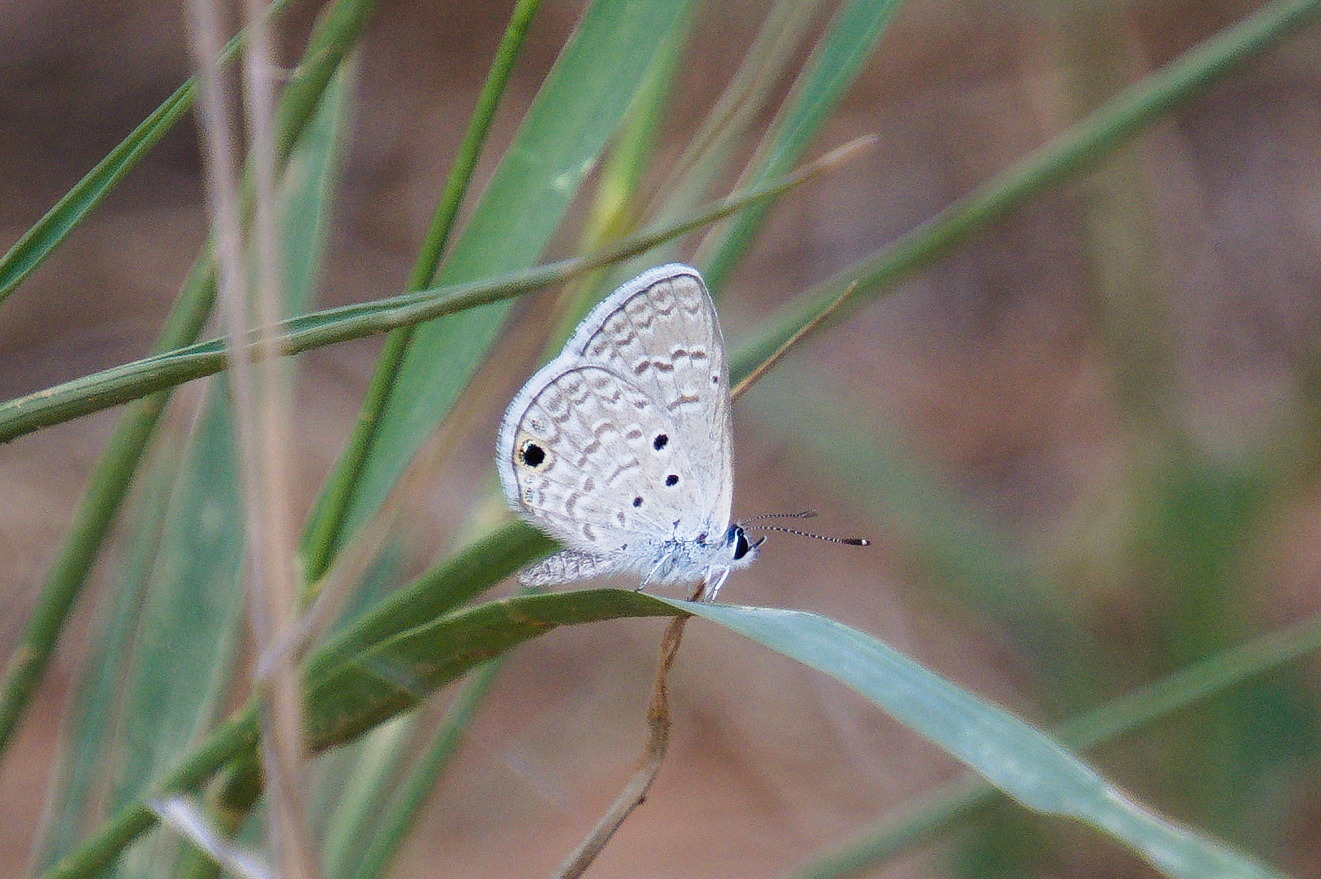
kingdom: Animalia
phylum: Arthropoda
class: Insecta
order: Lepidoptera
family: Lycaenidae
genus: Hemiargus
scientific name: Hemiargus ceraunus
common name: Ceraunus blue
